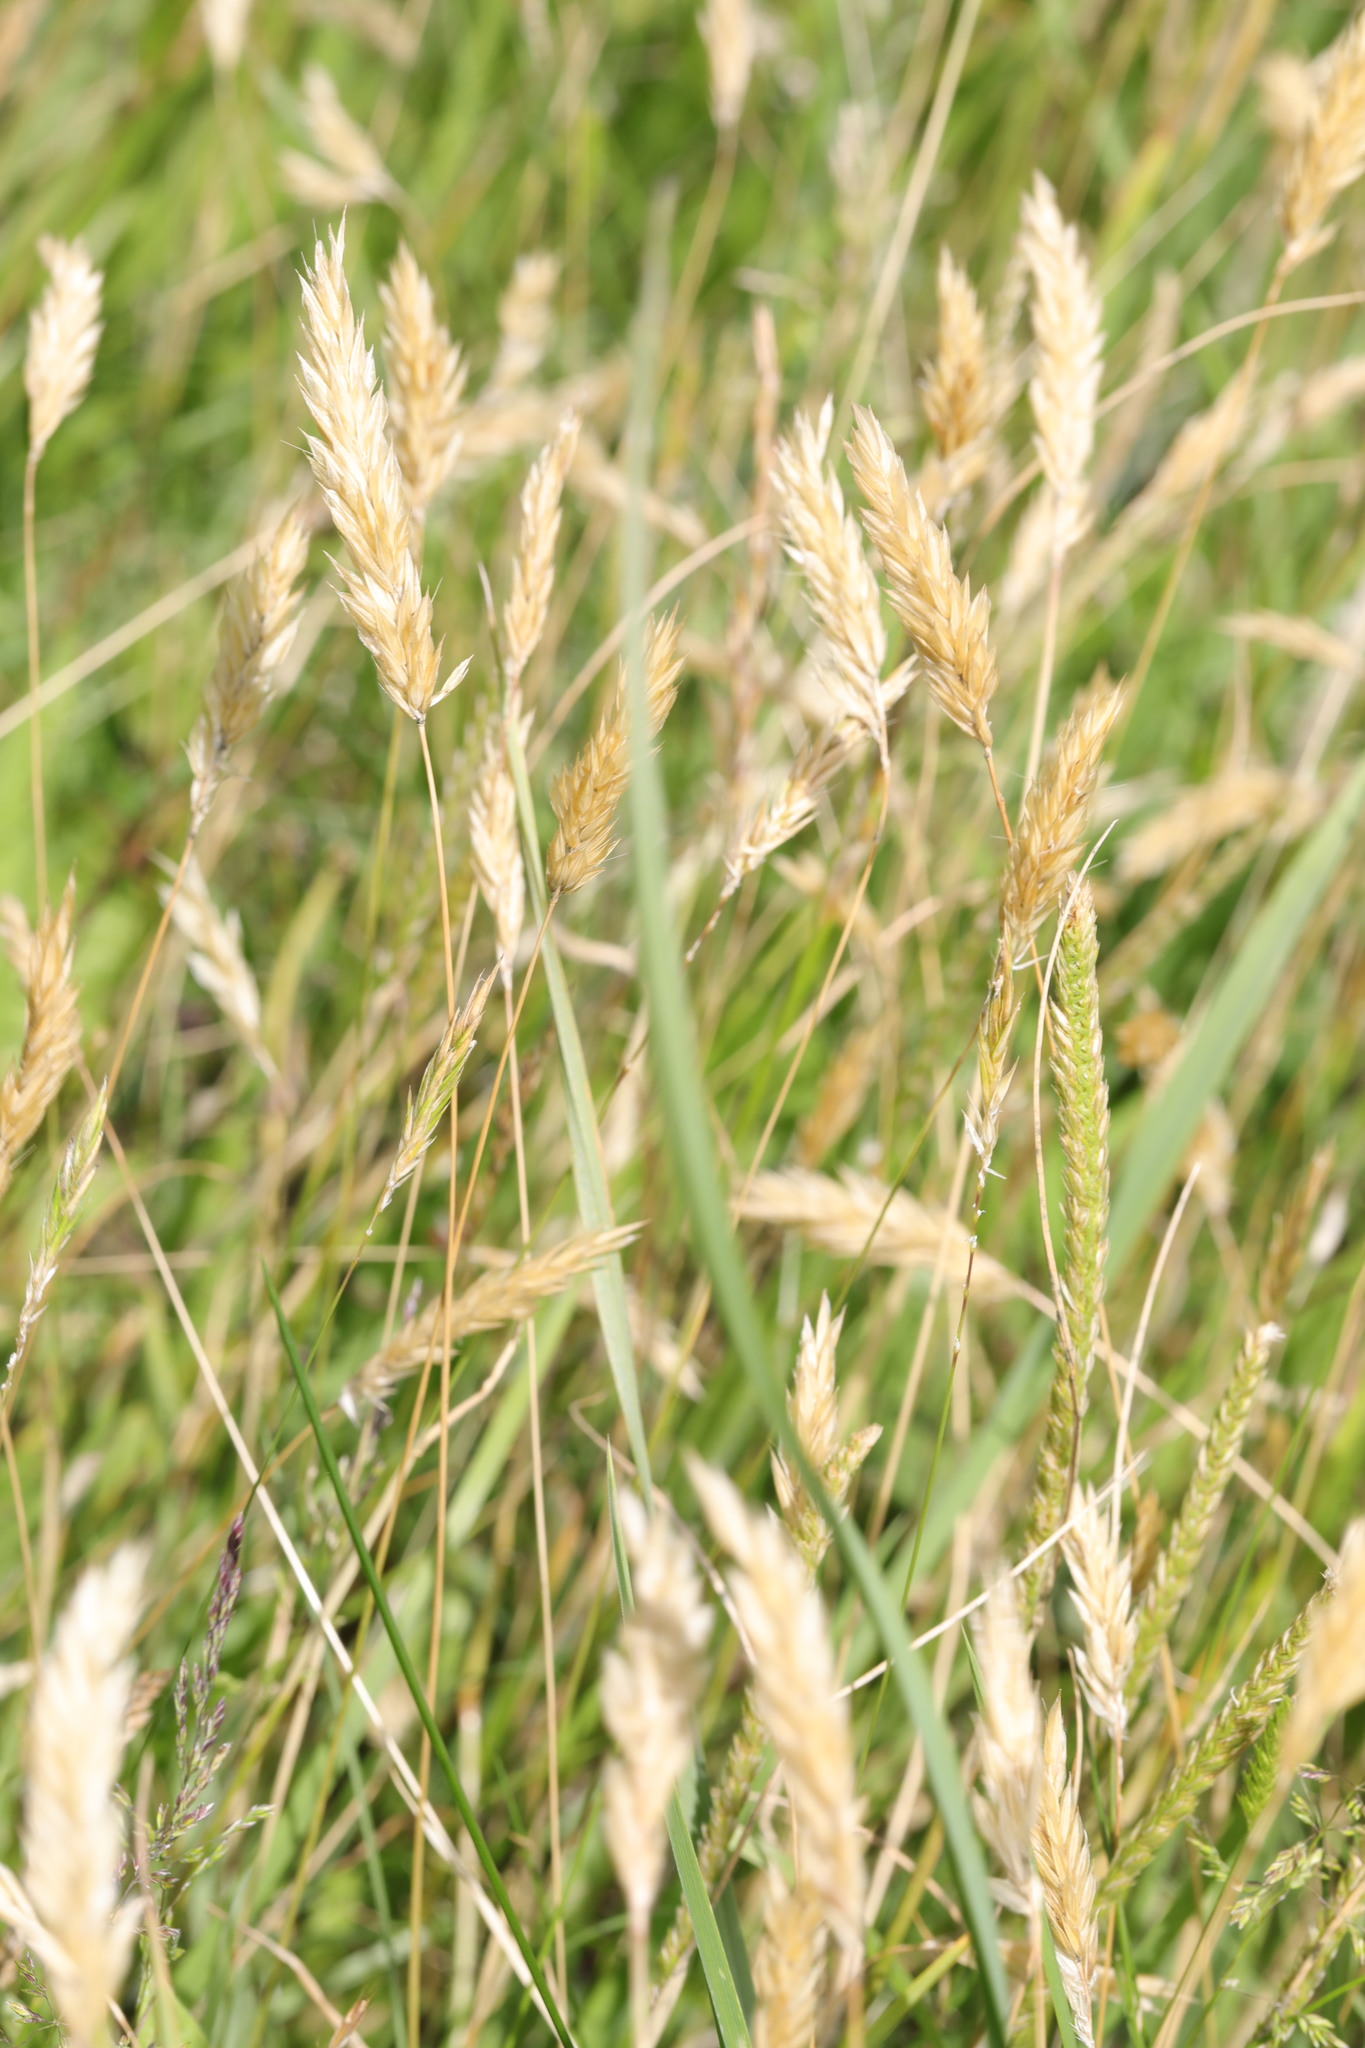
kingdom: Plantae
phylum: Tracheophyta
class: Liliopsida
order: Poales
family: Poaceae
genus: Cynosurus
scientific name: Cynosurus cristatus
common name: Crested dog's-tail
